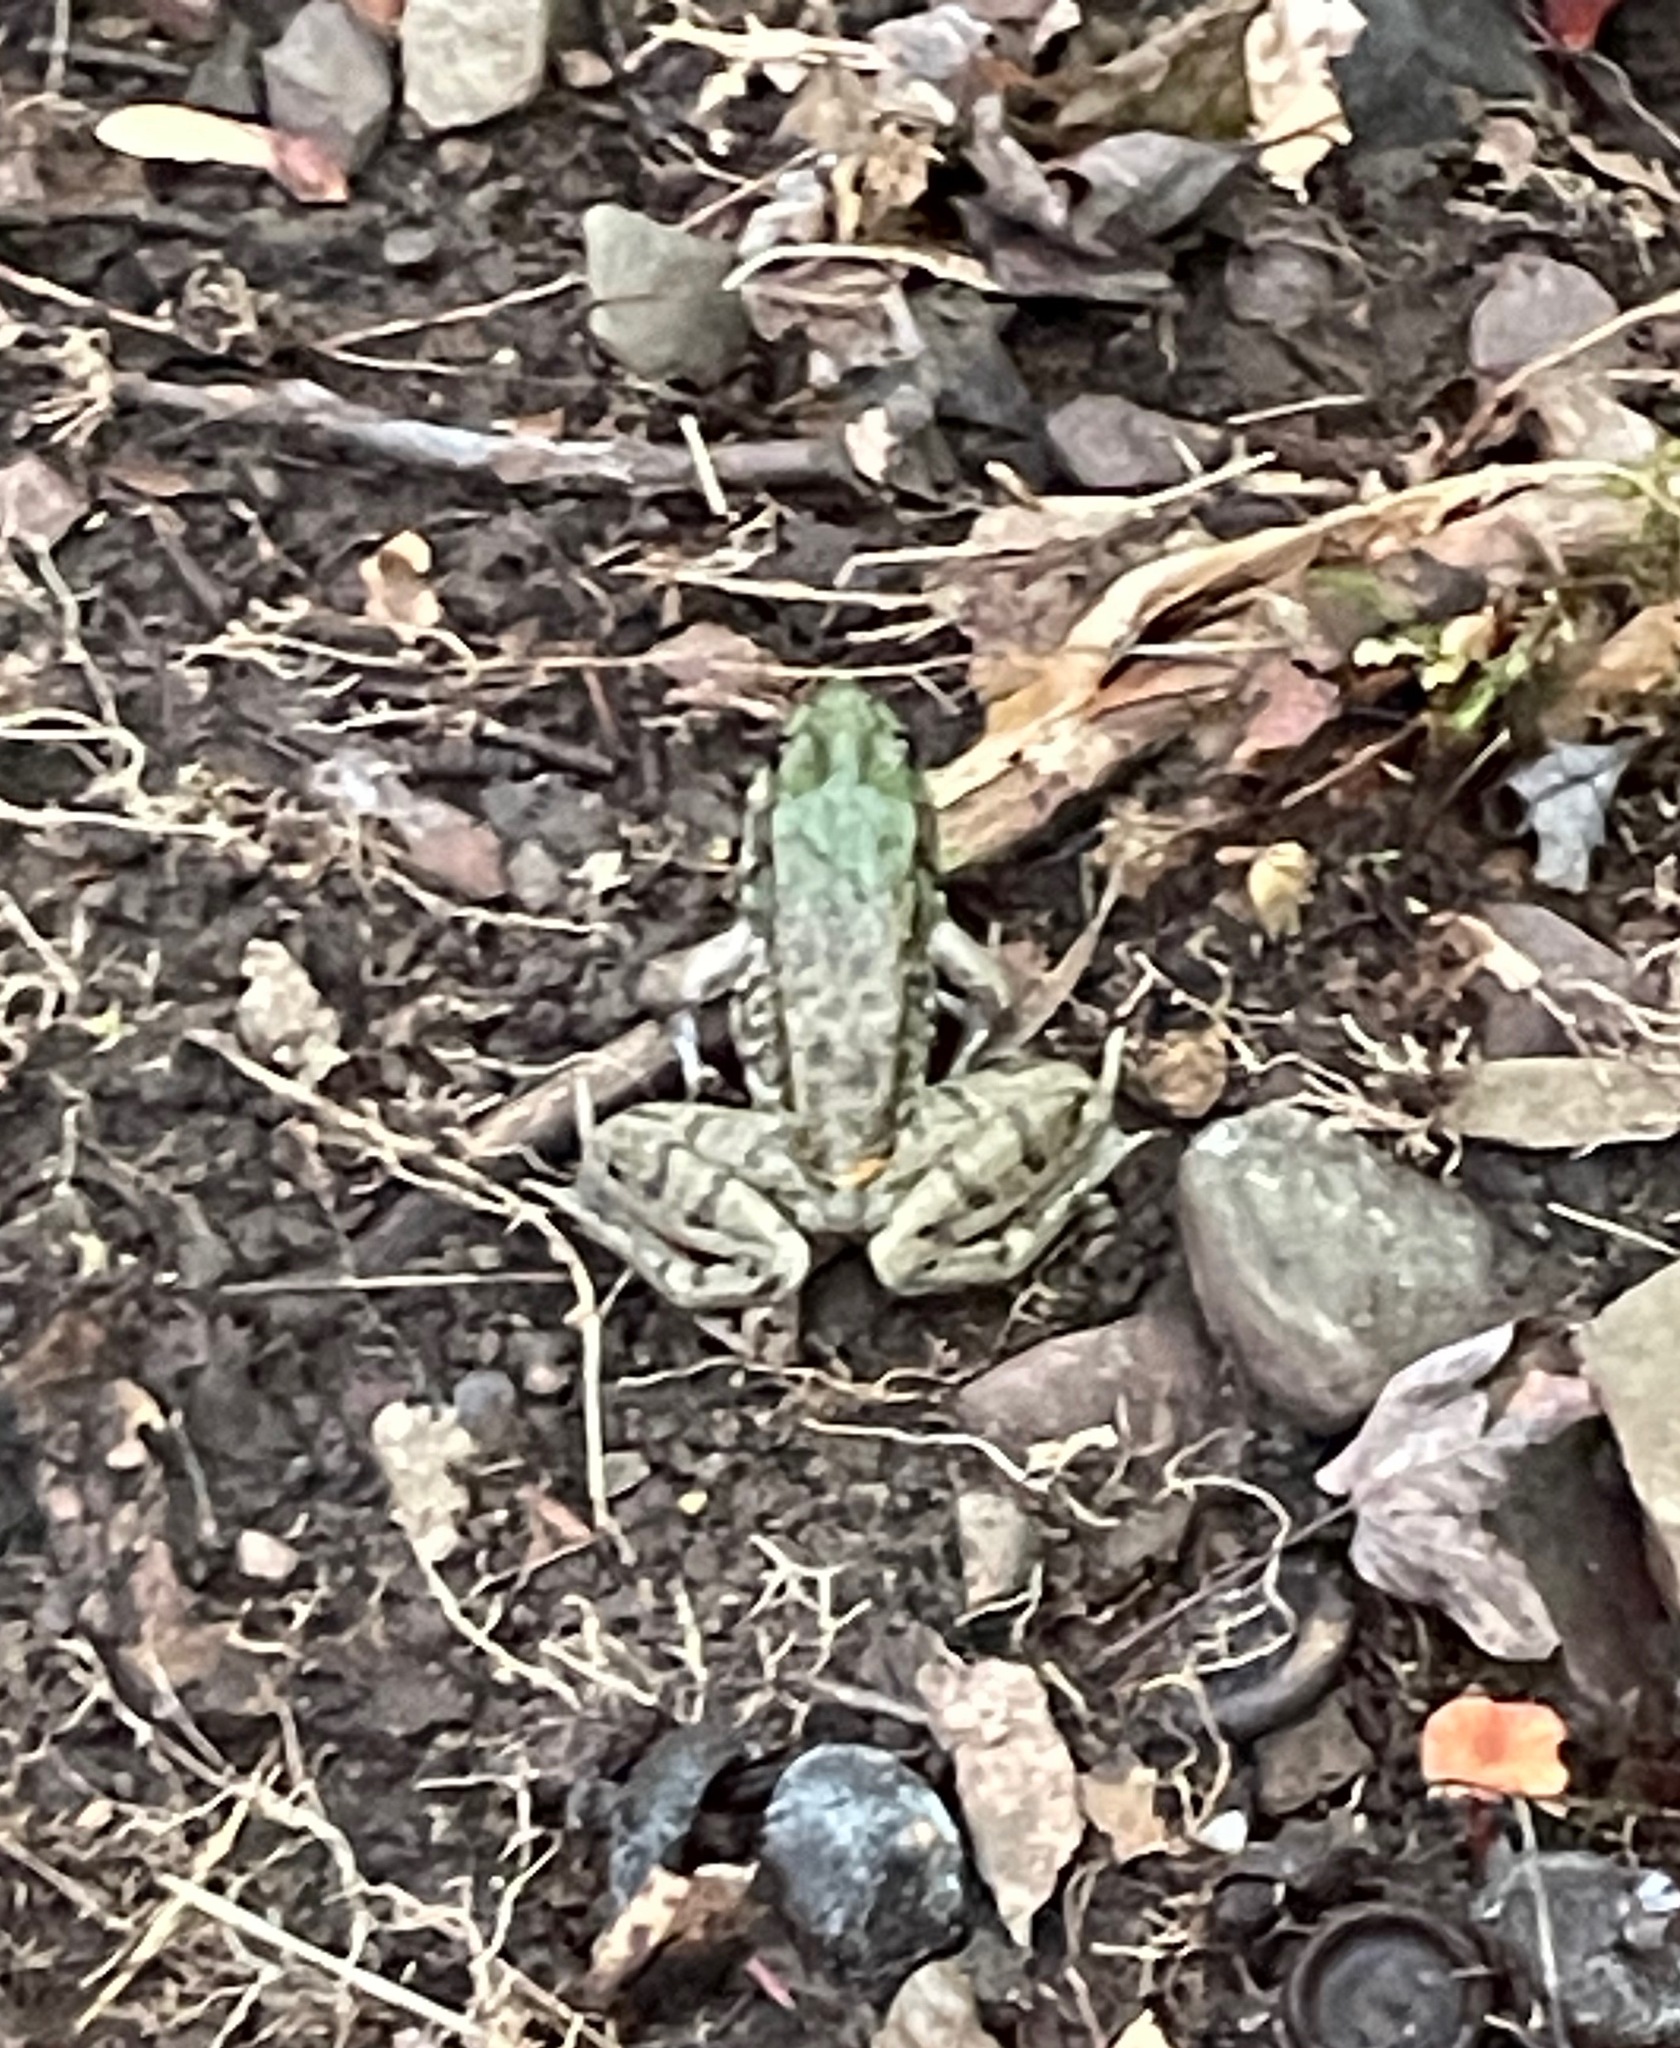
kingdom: Animalia
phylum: Chordata
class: Amphibia
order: Anura
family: Ranidae
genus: Lithobates
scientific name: Lithobates clamitans
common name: Green frog
